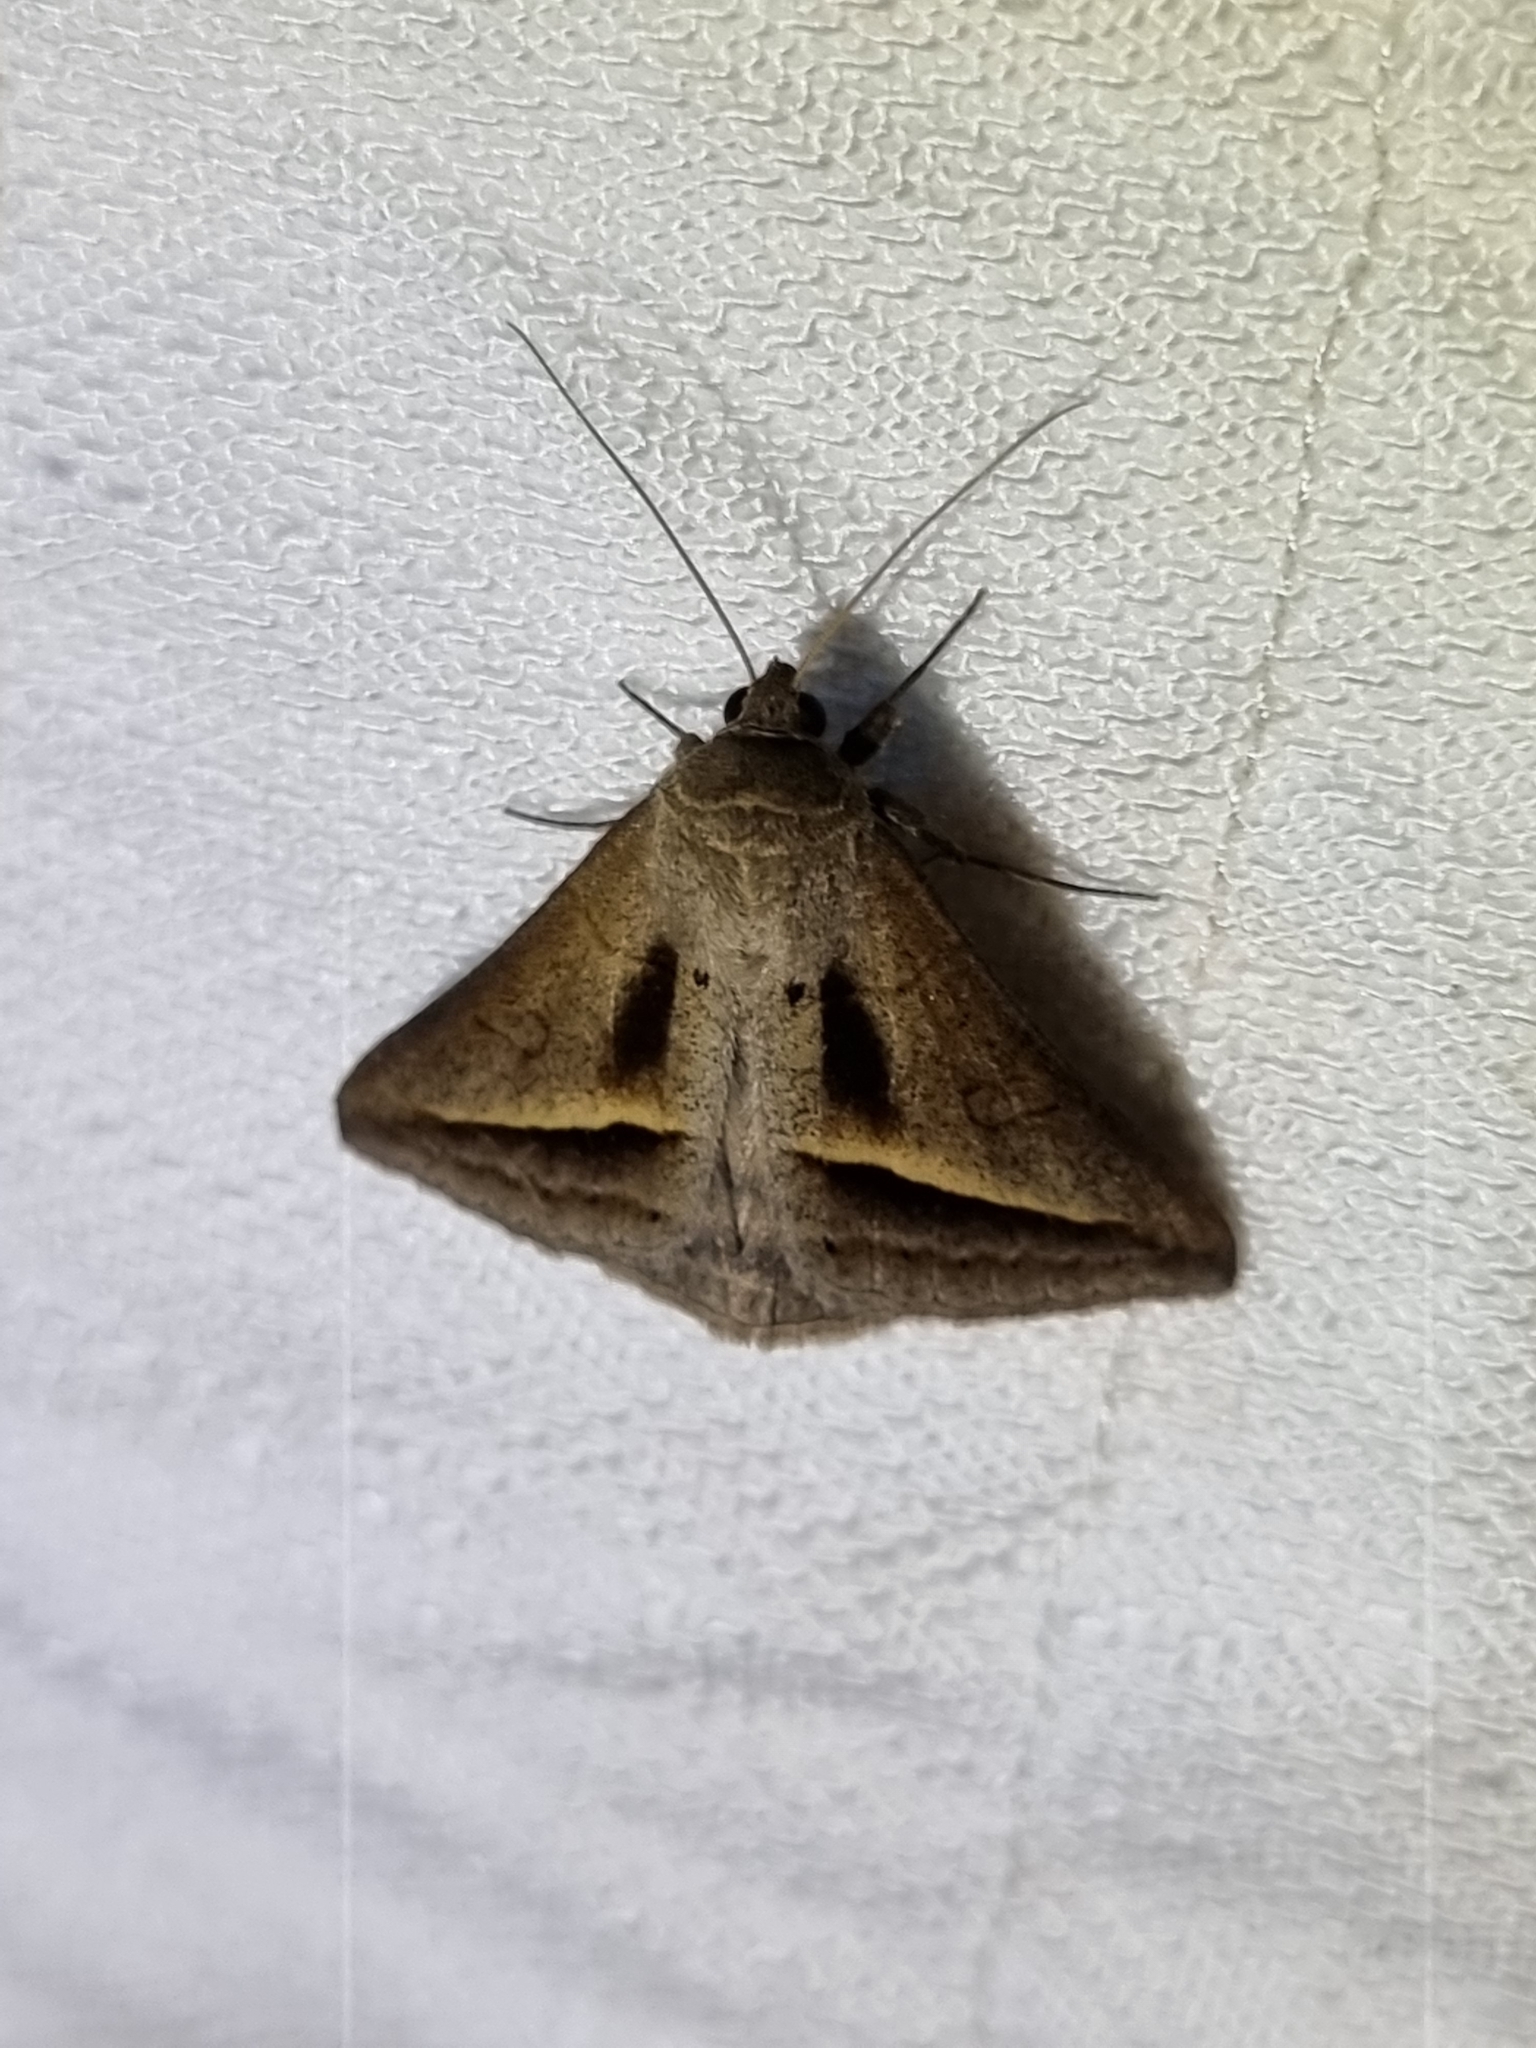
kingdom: Animalia
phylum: Arthropoda
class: Insecta
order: Lepidoptera
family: Erebidae
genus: Mocis
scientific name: Mocis frugalis
